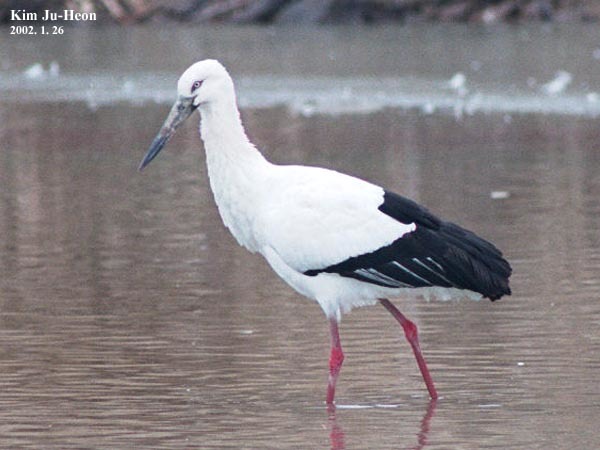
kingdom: Animalia
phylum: Chordata
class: Aves
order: Ciconiiformes
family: Ciconiidae
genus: Ciconia
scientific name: Ciconia boyciana
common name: Oriental stork
